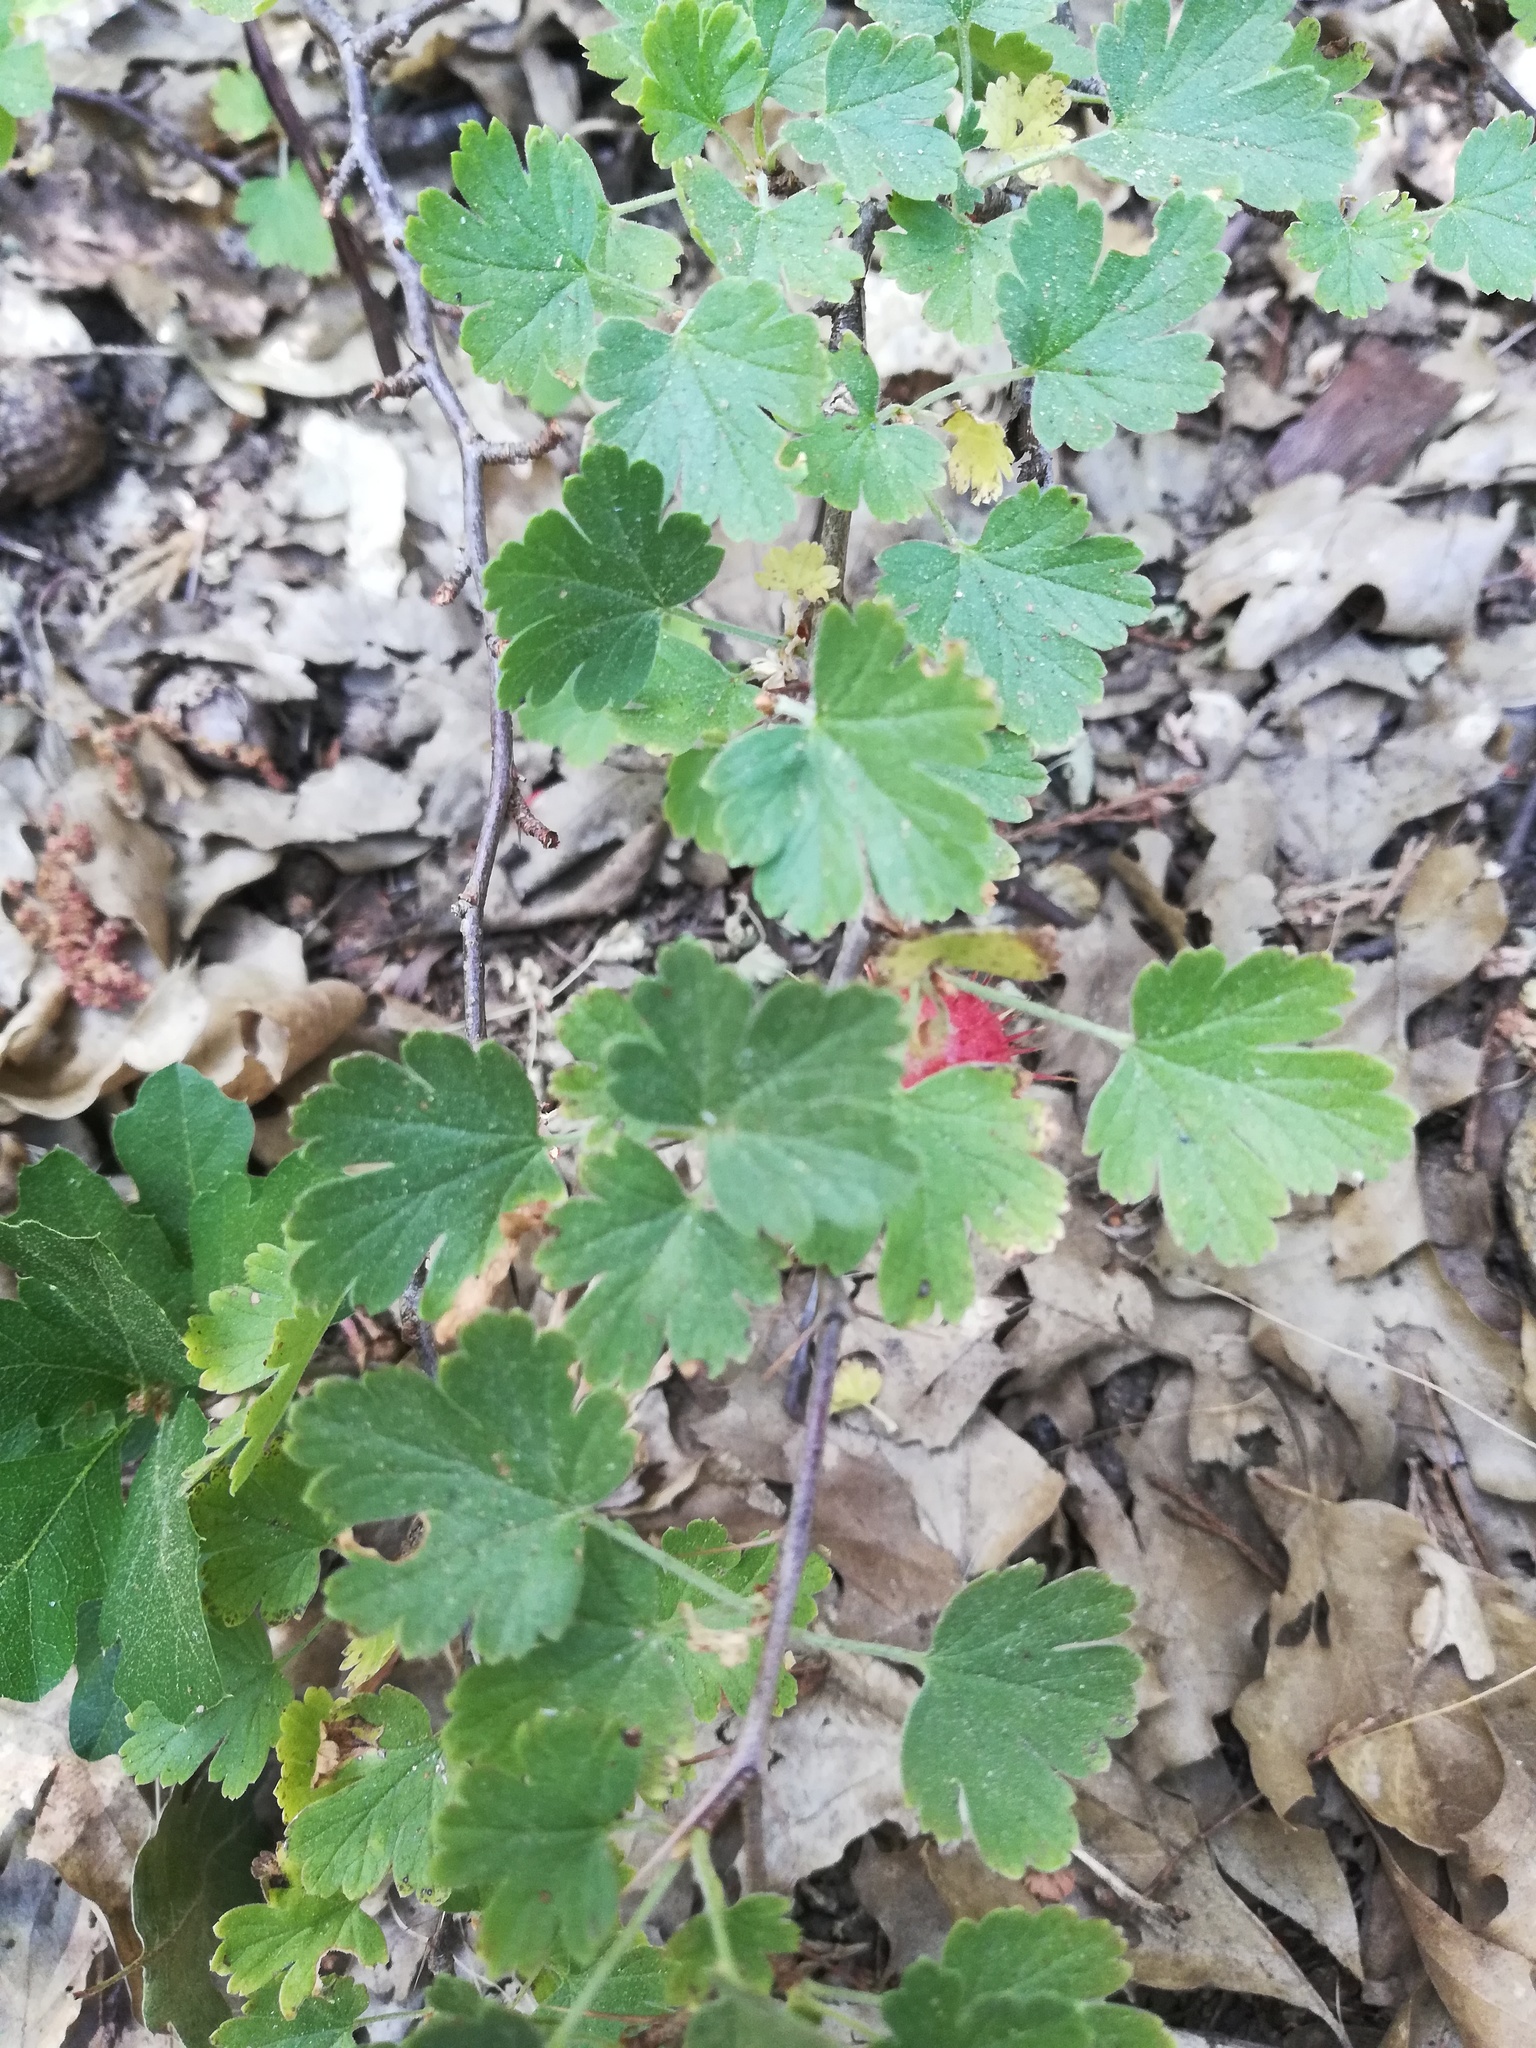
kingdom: Plantae
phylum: Tracheophyta
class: Magnoliopsida
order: Saxifragales
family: Grossulariaceae
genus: Ribes
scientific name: Ribes roezlii
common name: Sierra gooseberry
